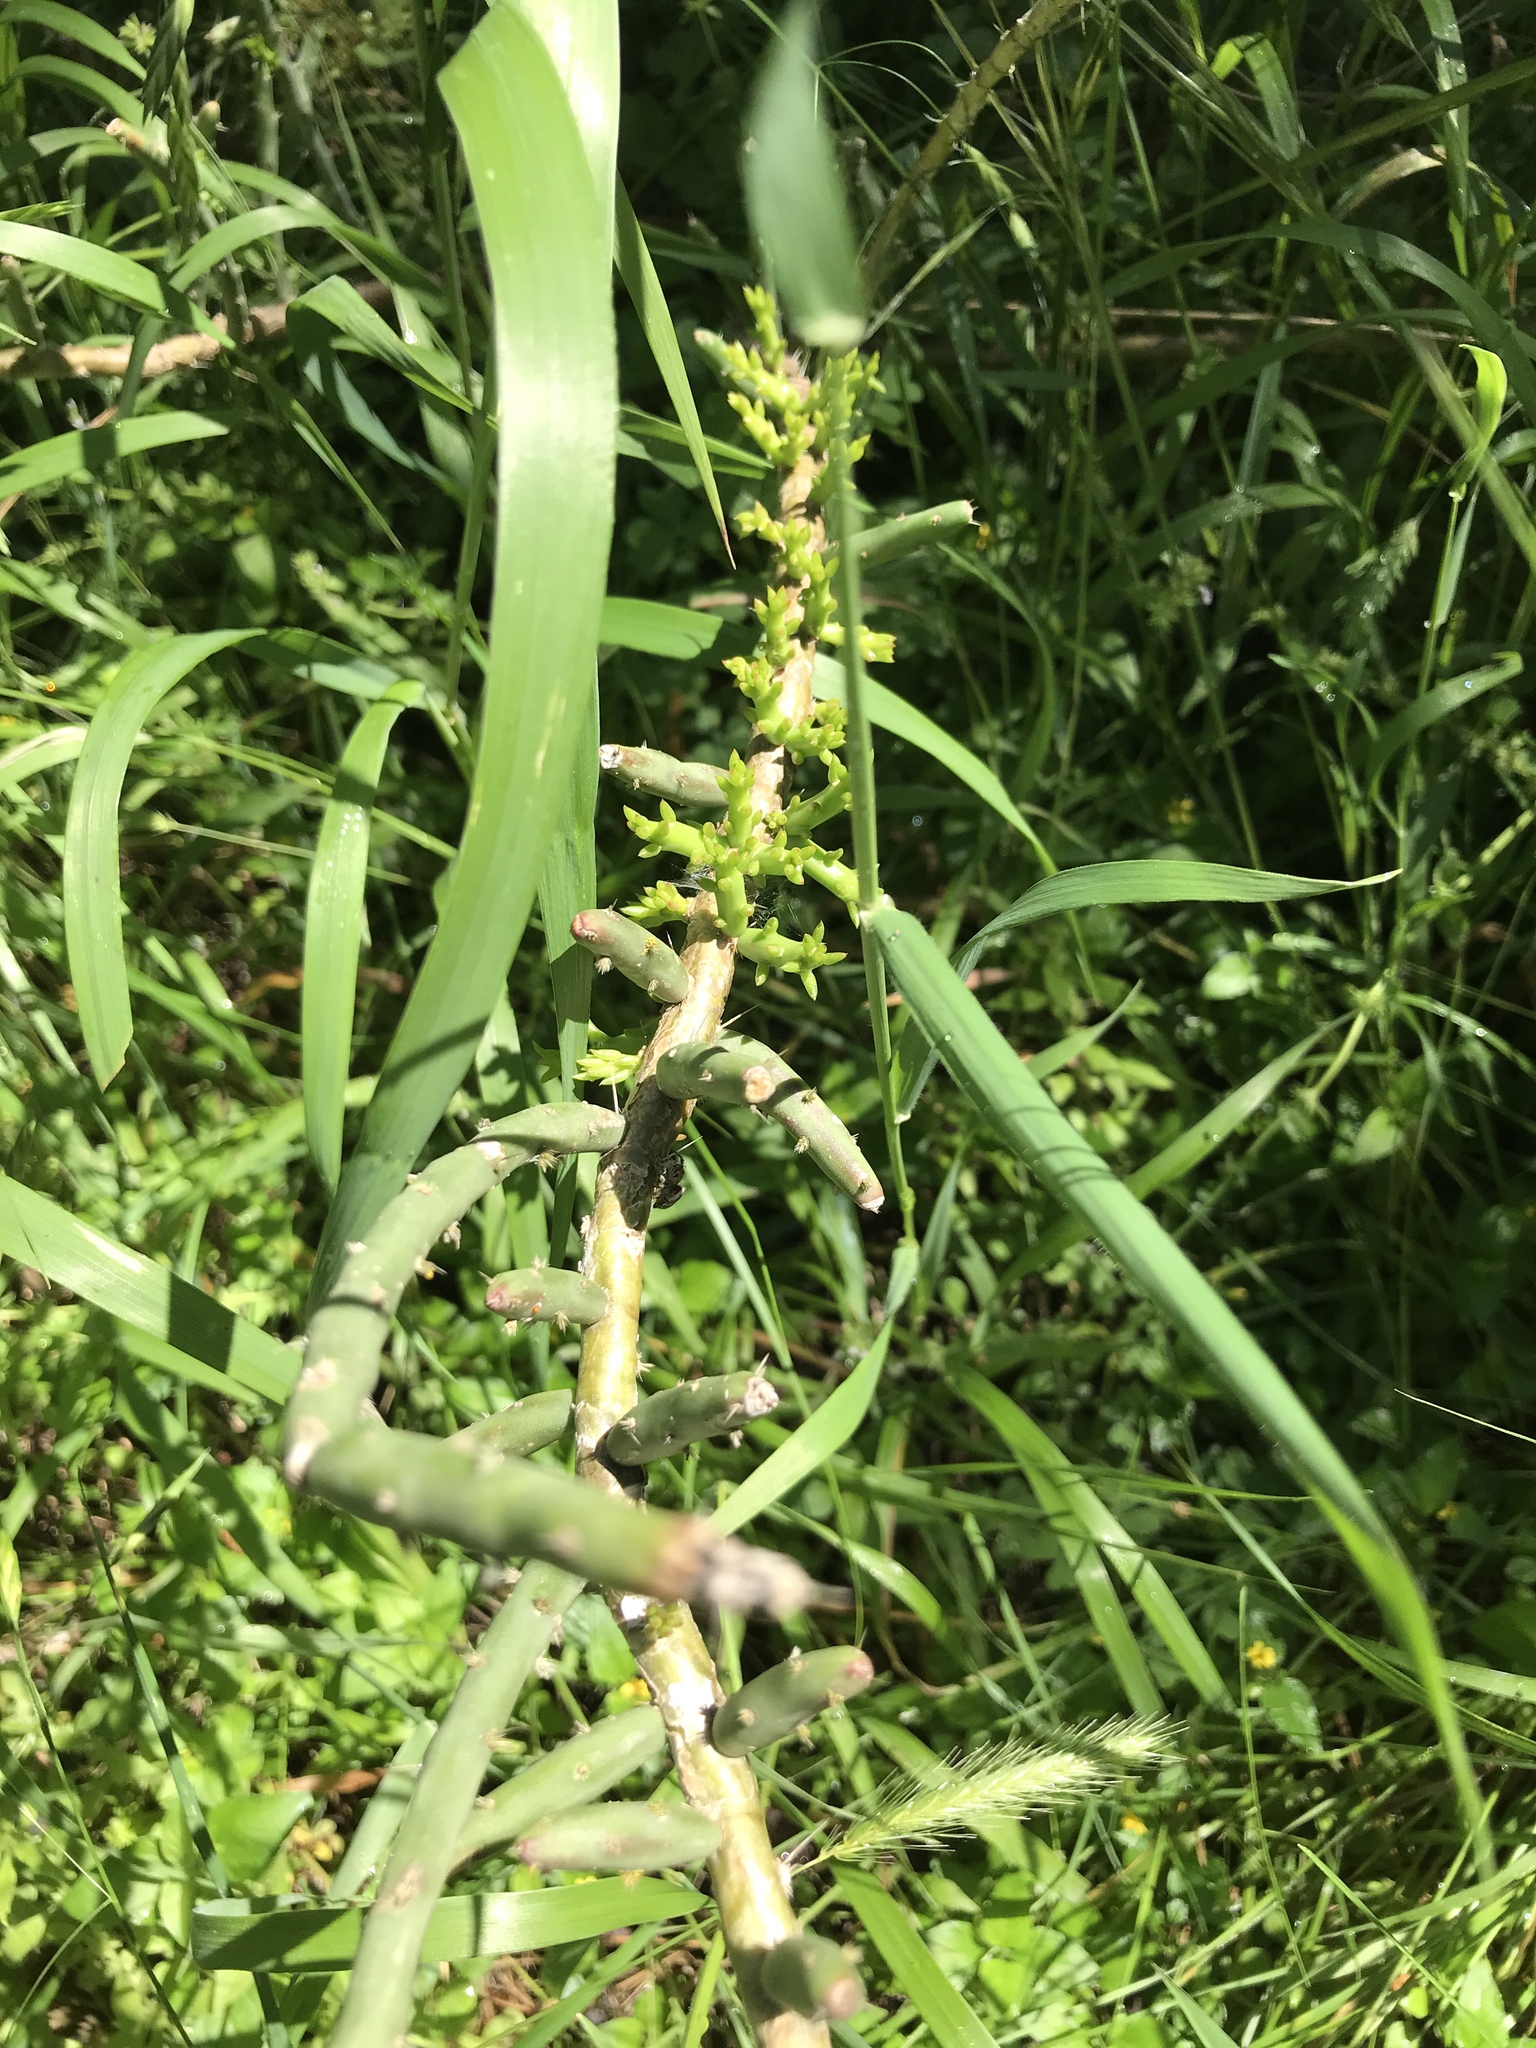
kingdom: Plantae
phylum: Tracheophyta
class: Magnoliopsida
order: Caryophyllales
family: Cactaceae
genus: Cylindropuntia
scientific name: Cylindropuntia leptocaulis
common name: Christmas cactus
